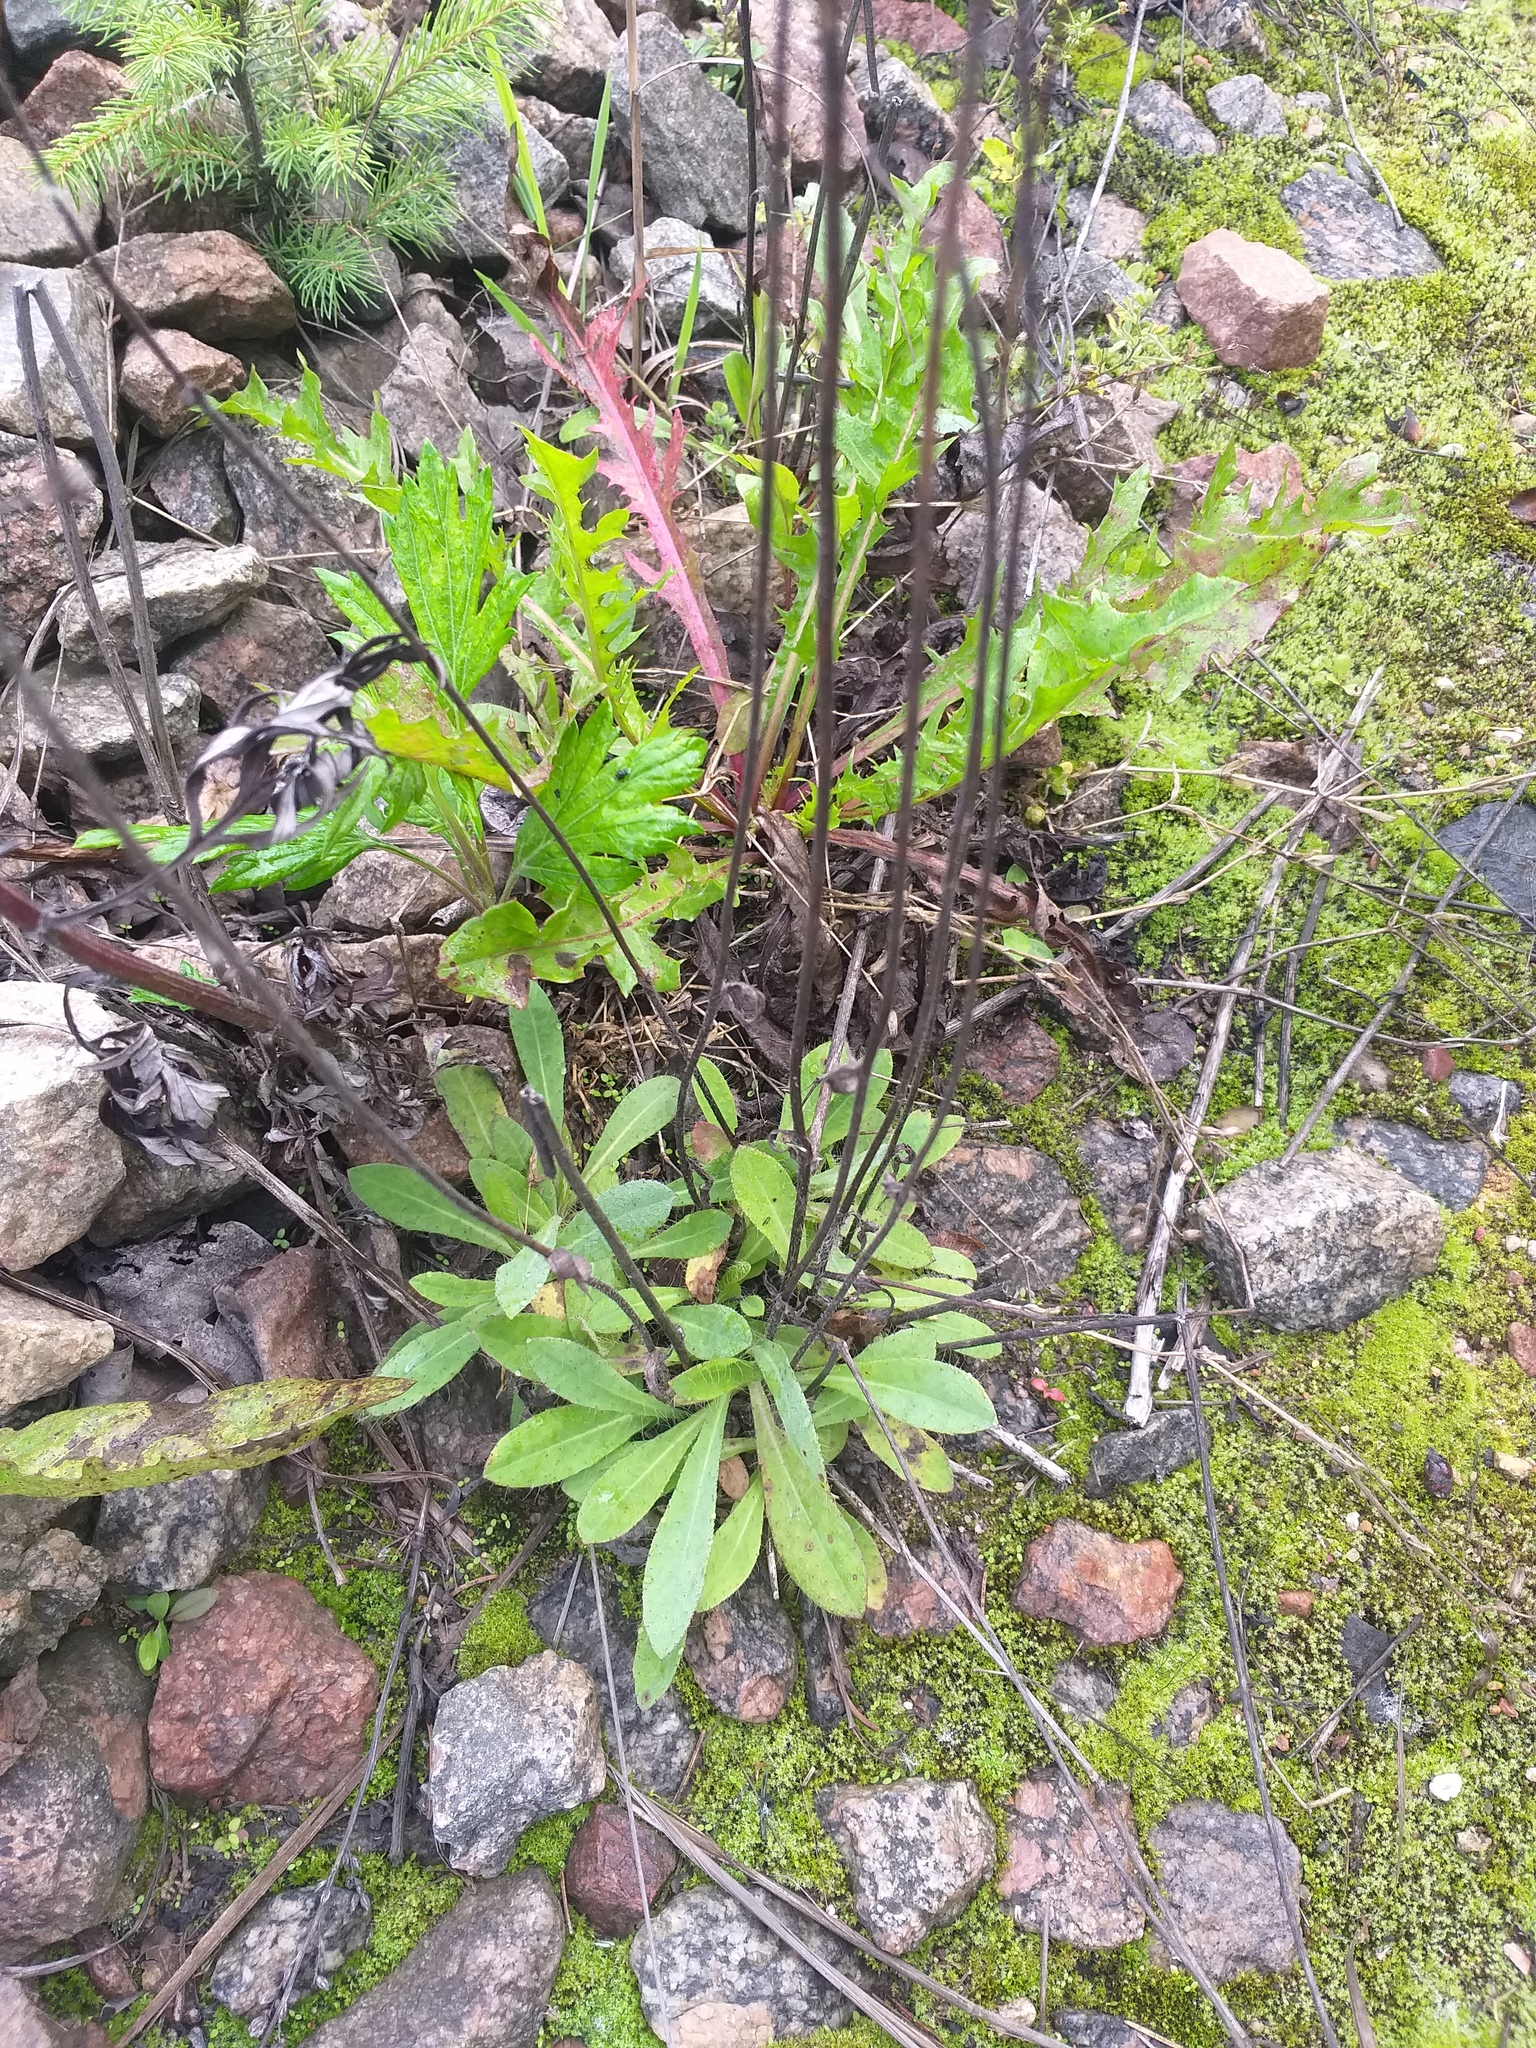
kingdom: Plantae
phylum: Tracheophyta
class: Magnoliopsida
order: Asterales
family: Asteraceae
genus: Pilosella
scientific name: Pilosella
